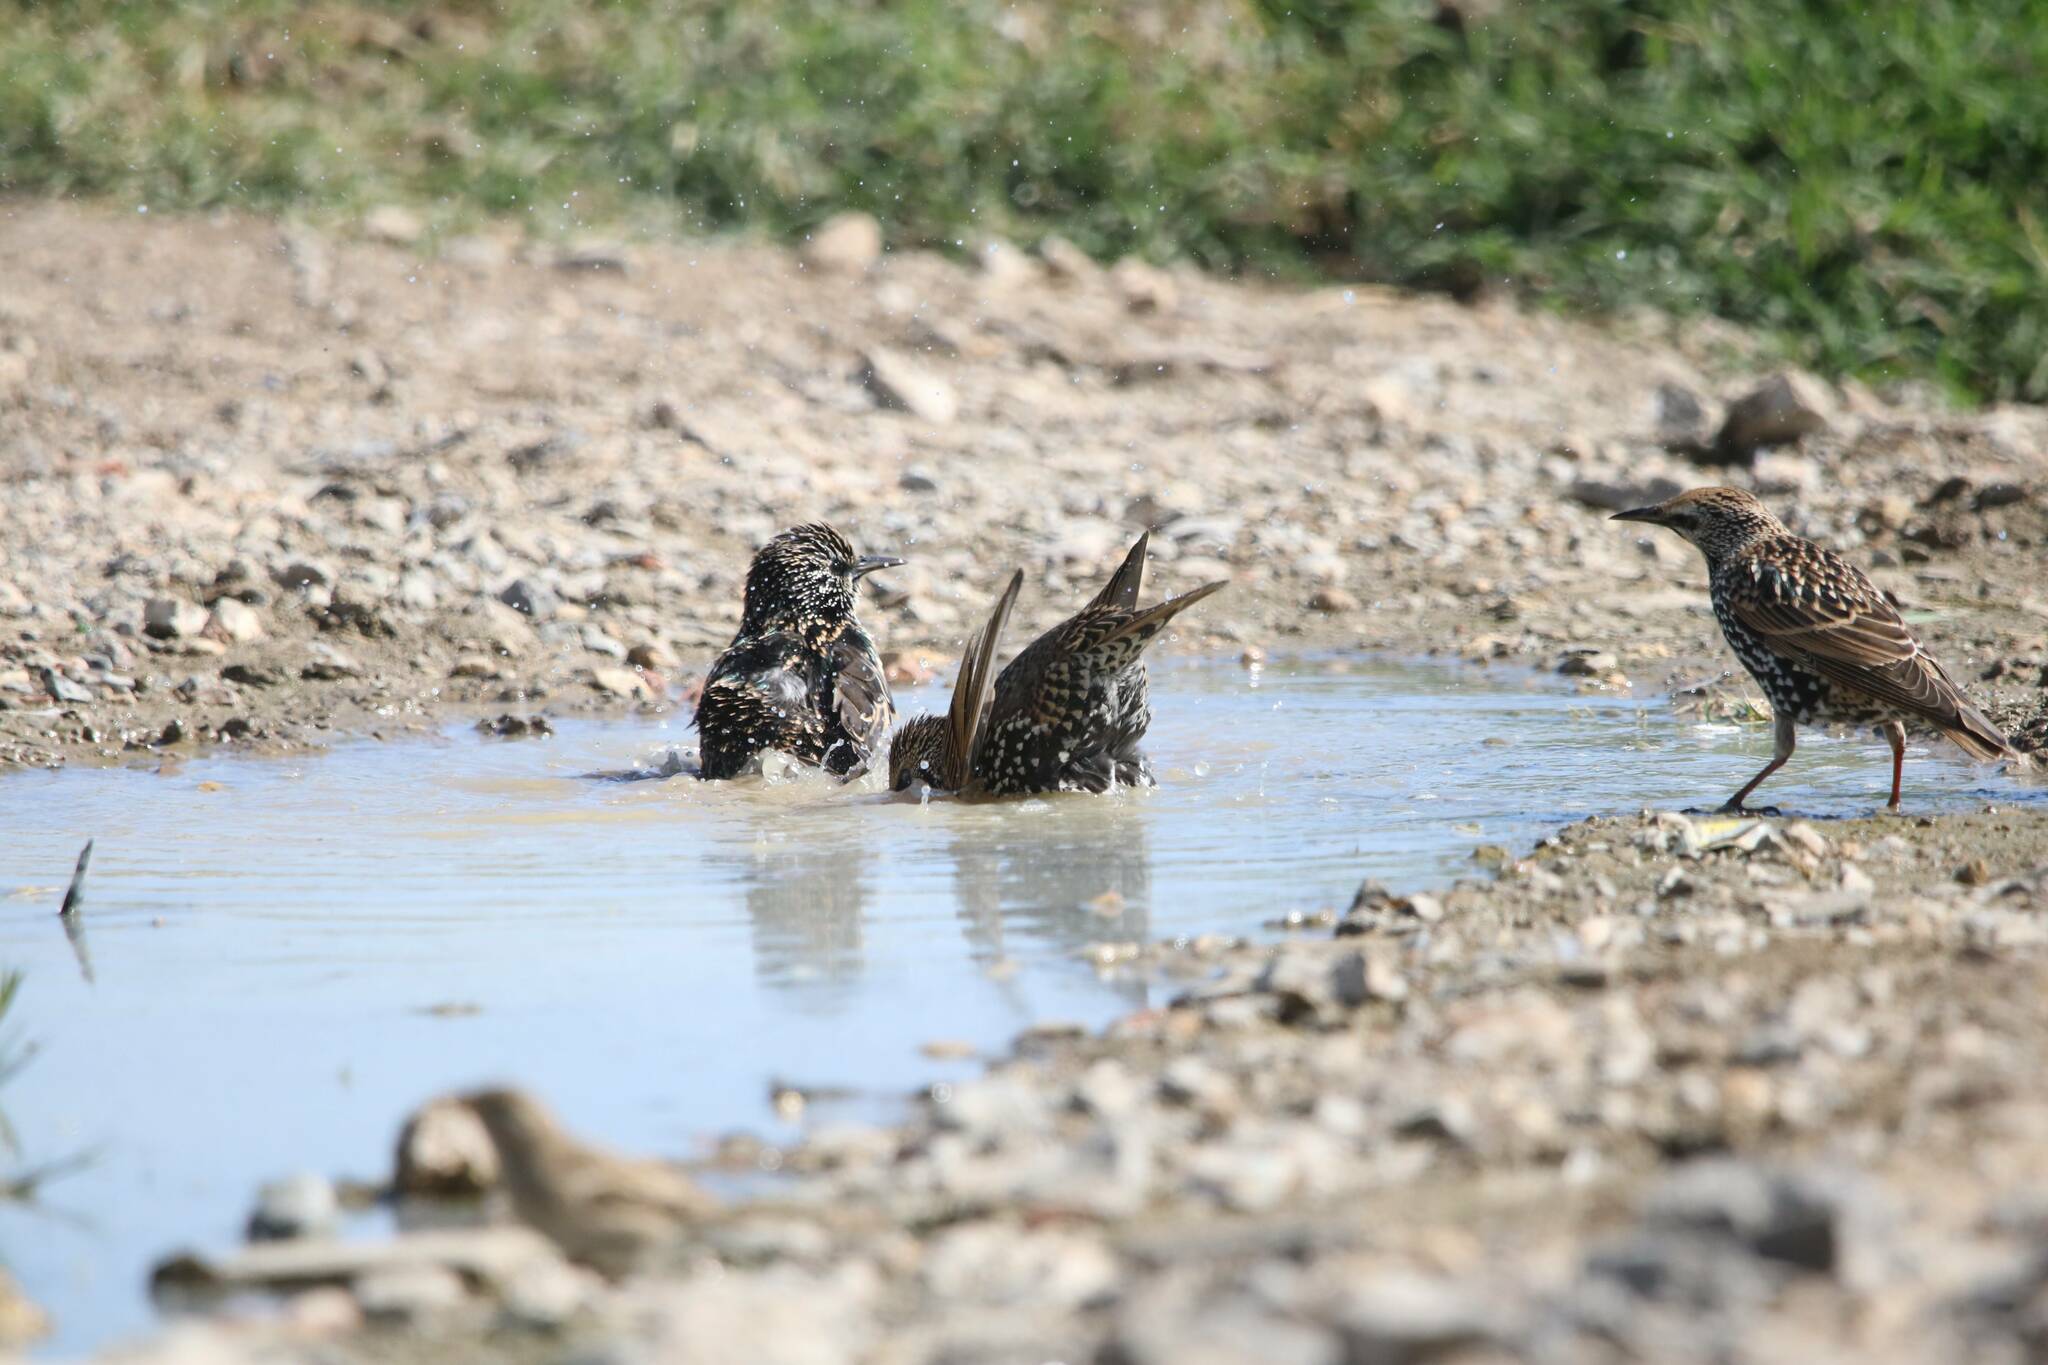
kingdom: Animalia
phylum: Chordata
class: Aves
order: Passeriformes
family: Sturnidae
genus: Sturnus
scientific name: Sturnus vulgaris
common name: Common starling
